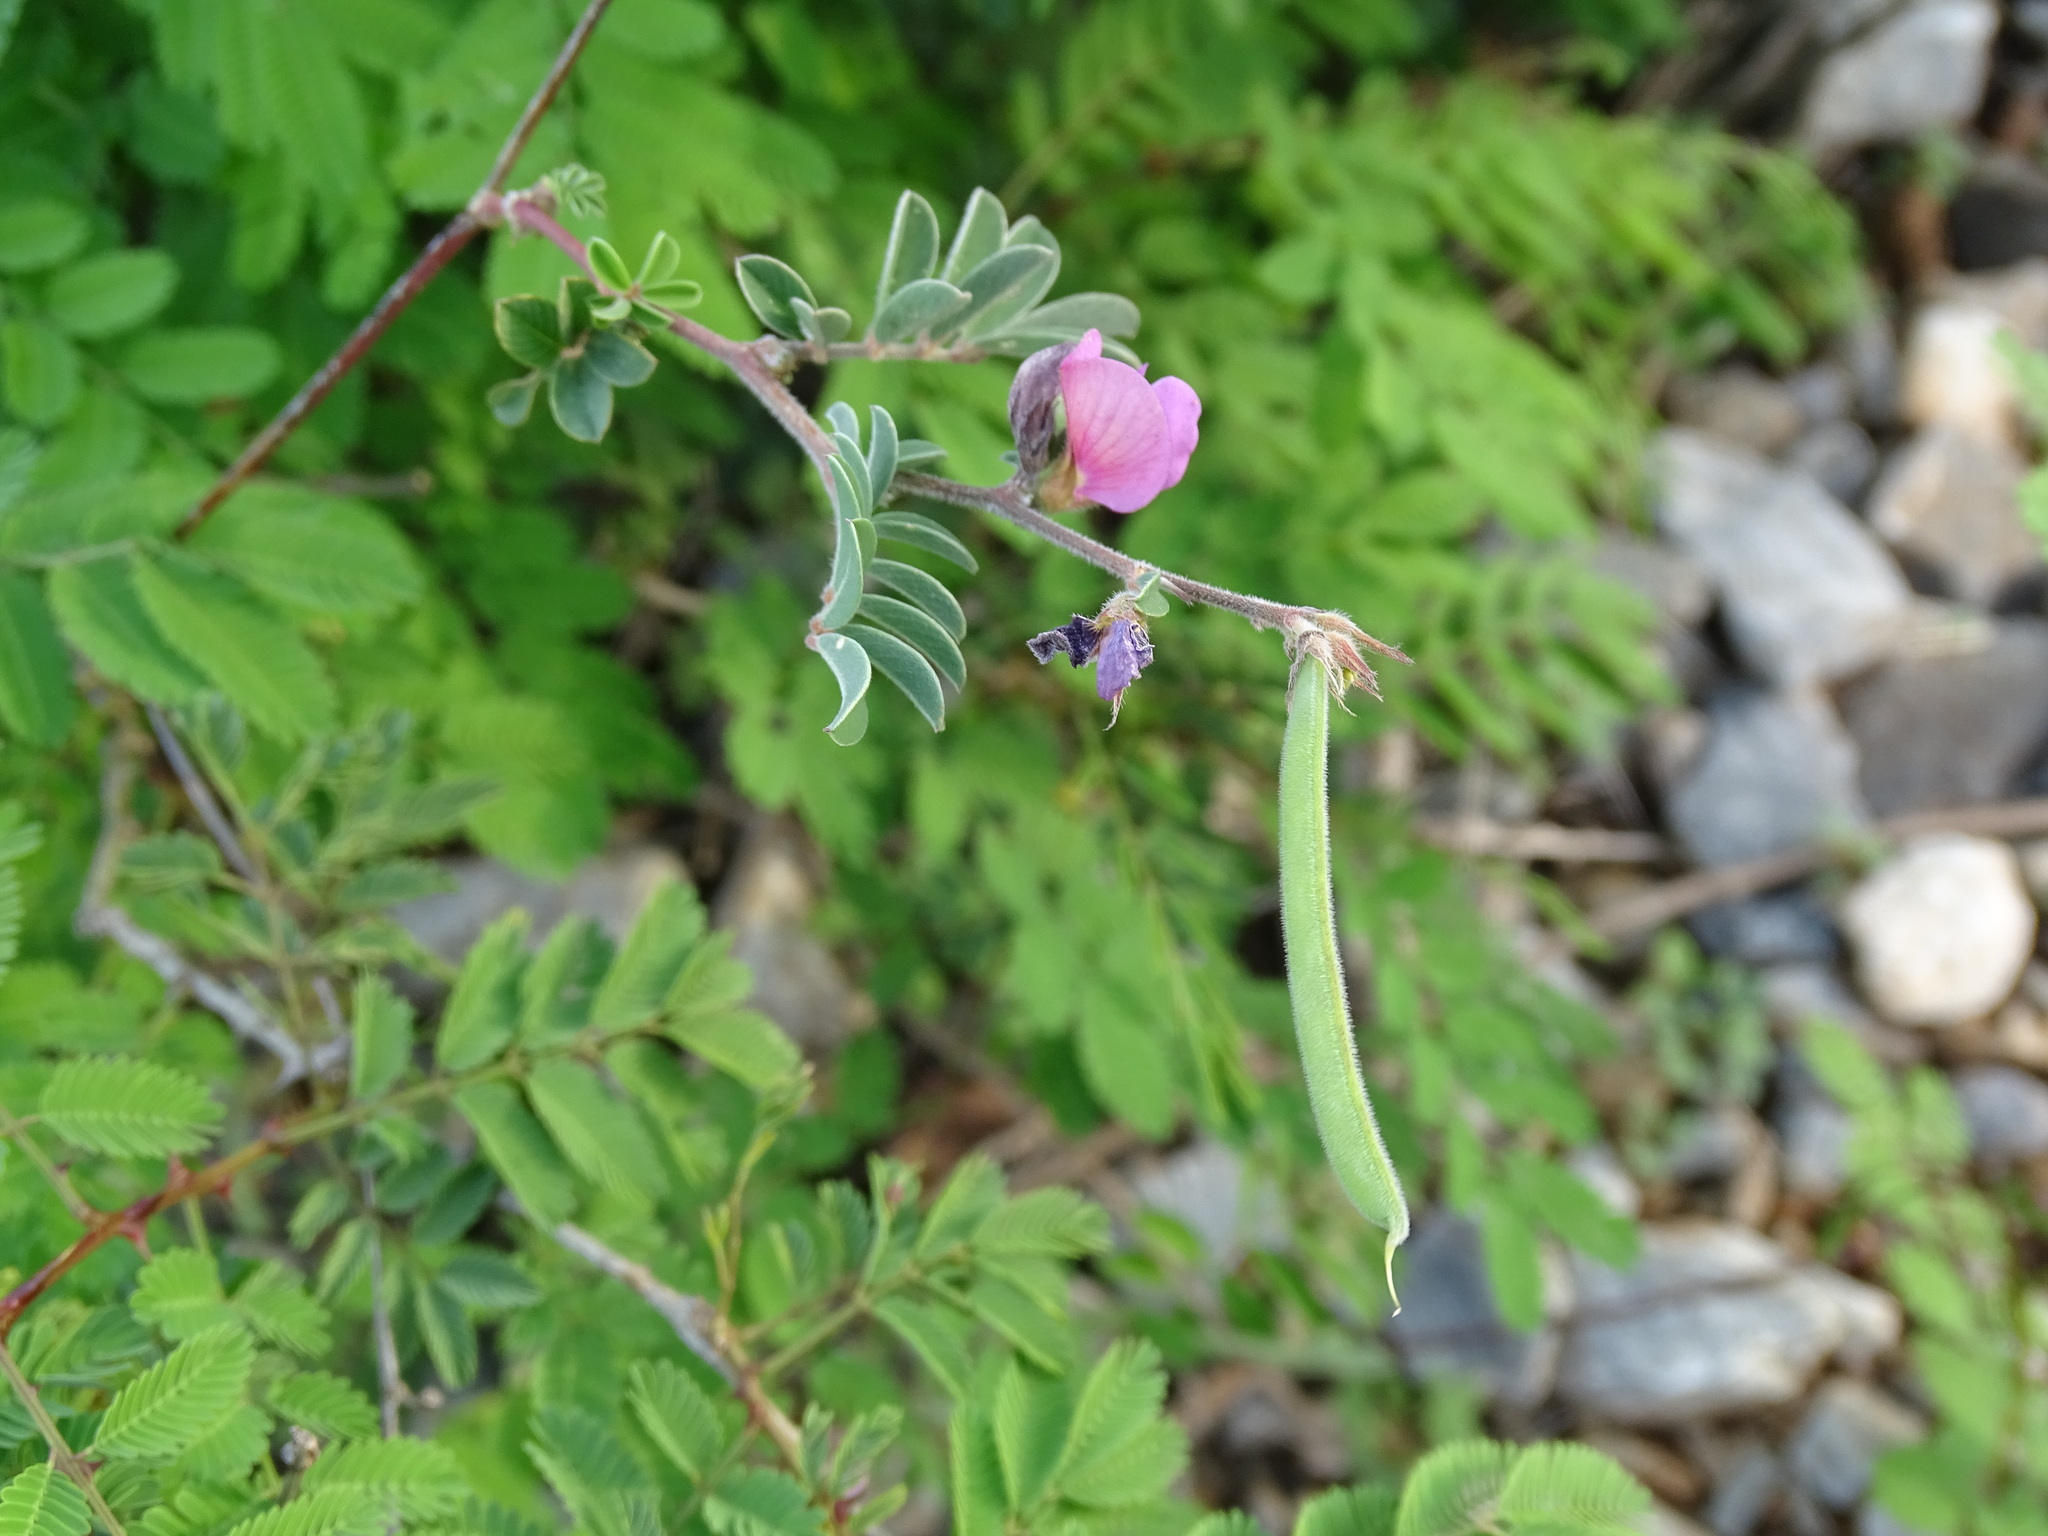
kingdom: Plantae
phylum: Tracheophyta
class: Magnoliopsida
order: Fabales
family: Fabaceae
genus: Tephrosia
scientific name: Tephrosia cinerea
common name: Ashen hoarypea
